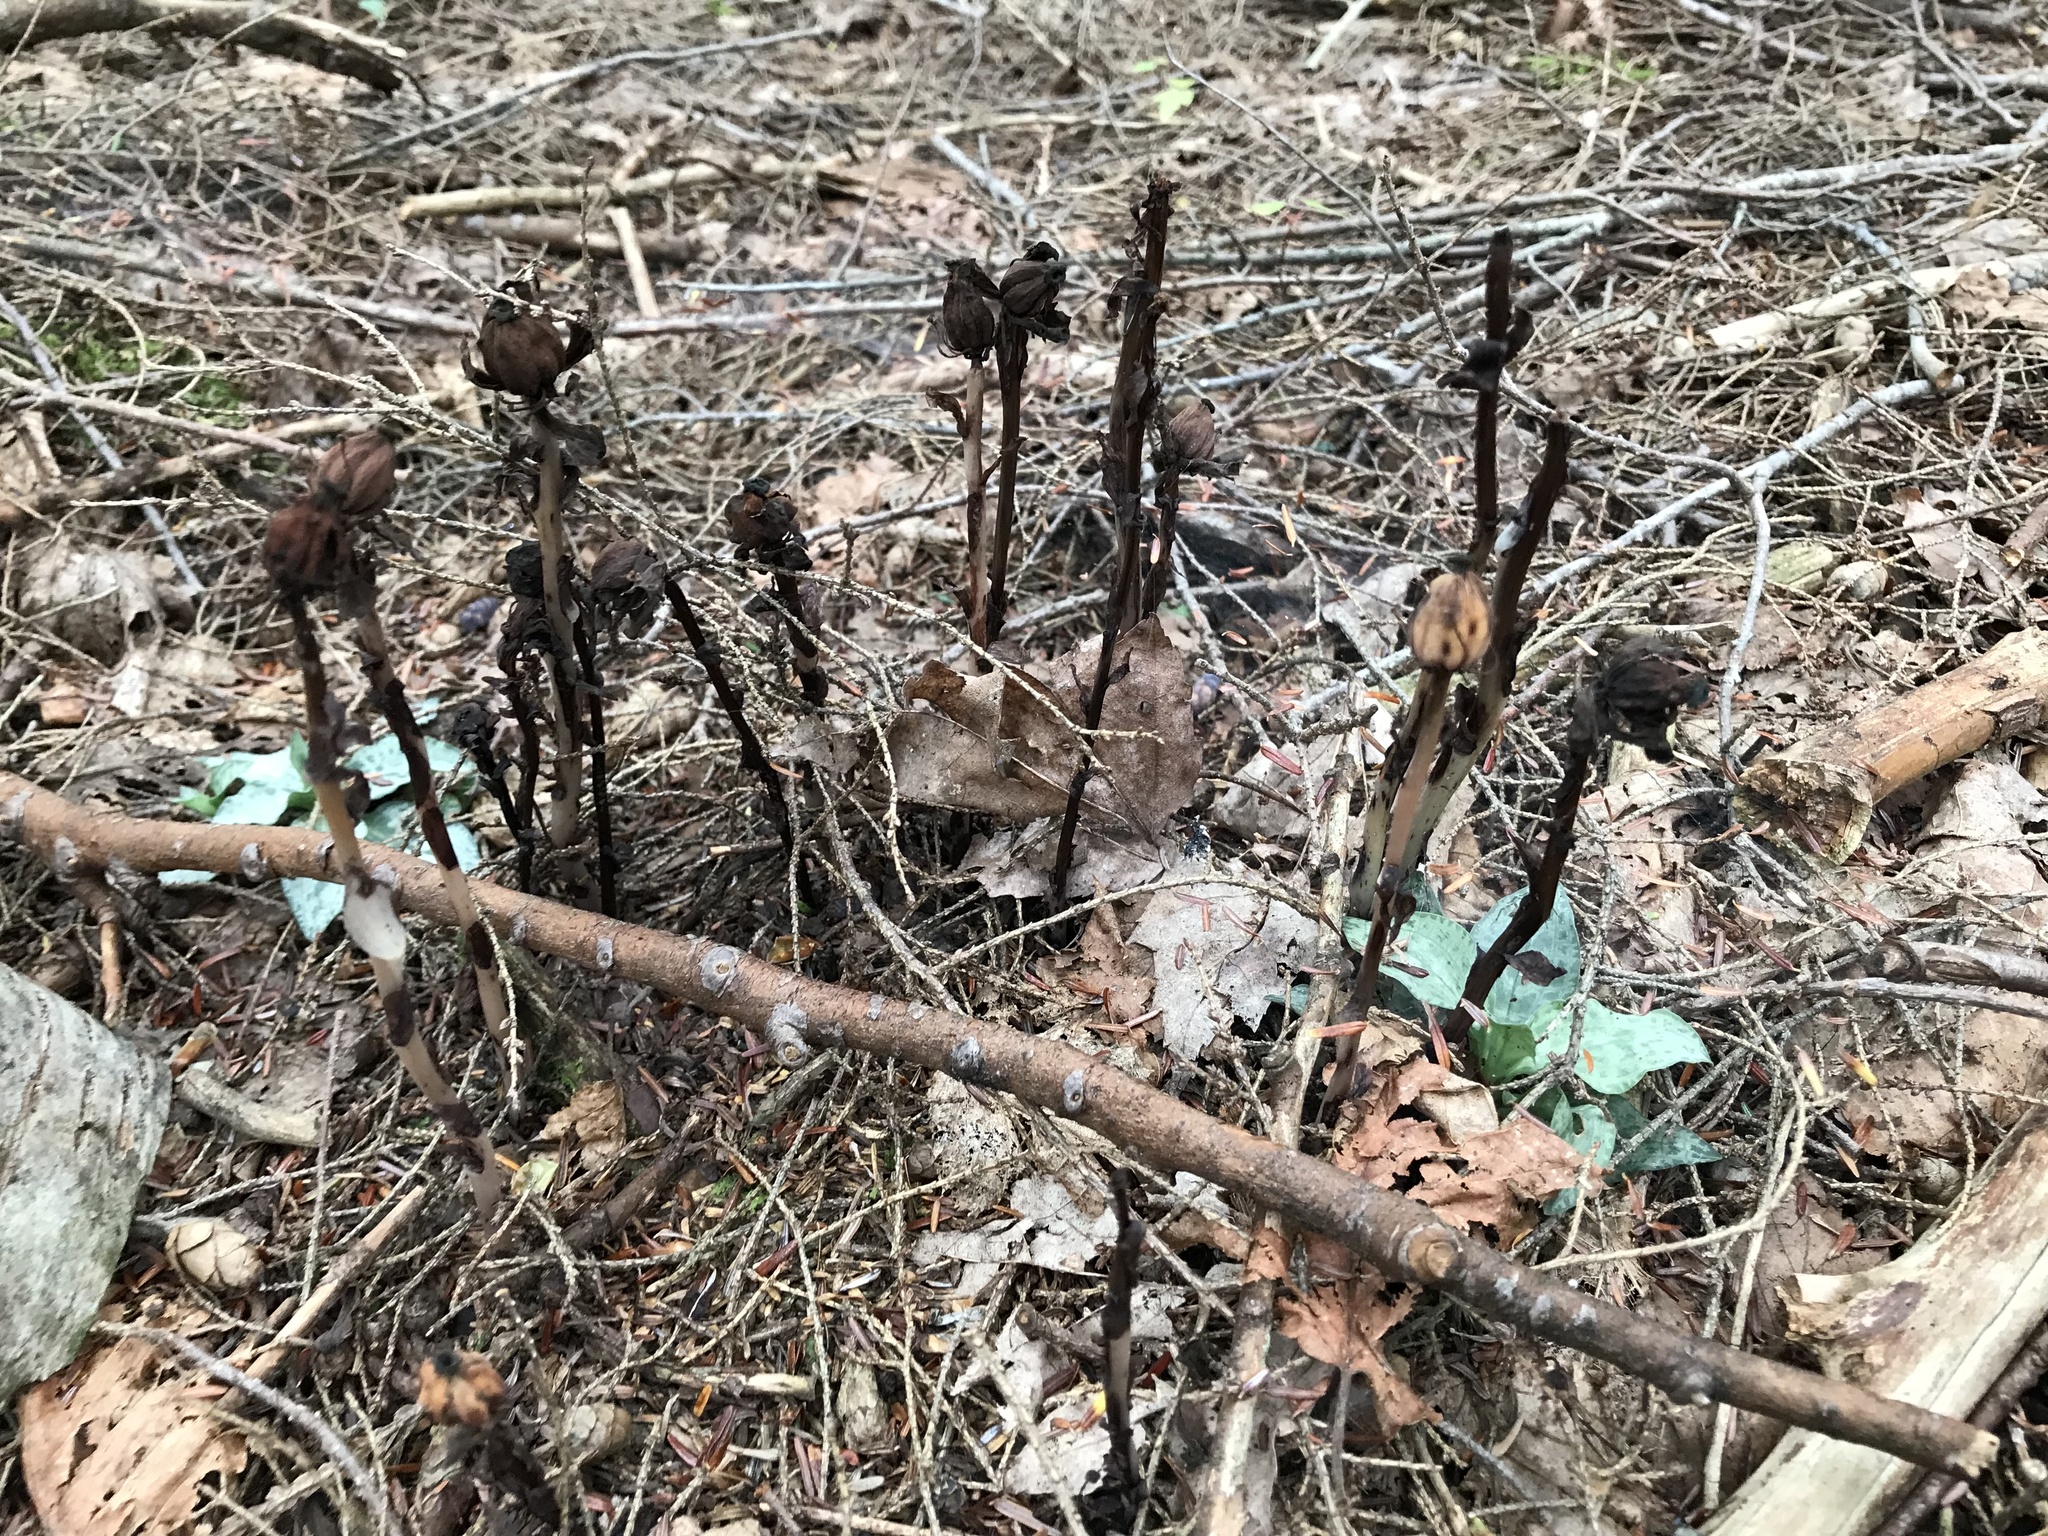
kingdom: Plantae
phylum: Tracheophyta
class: Magnoliopsida
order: Ericales
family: Ericaceae
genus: Monotropa
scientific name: Monotropa uniflora
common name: Convulsion root
